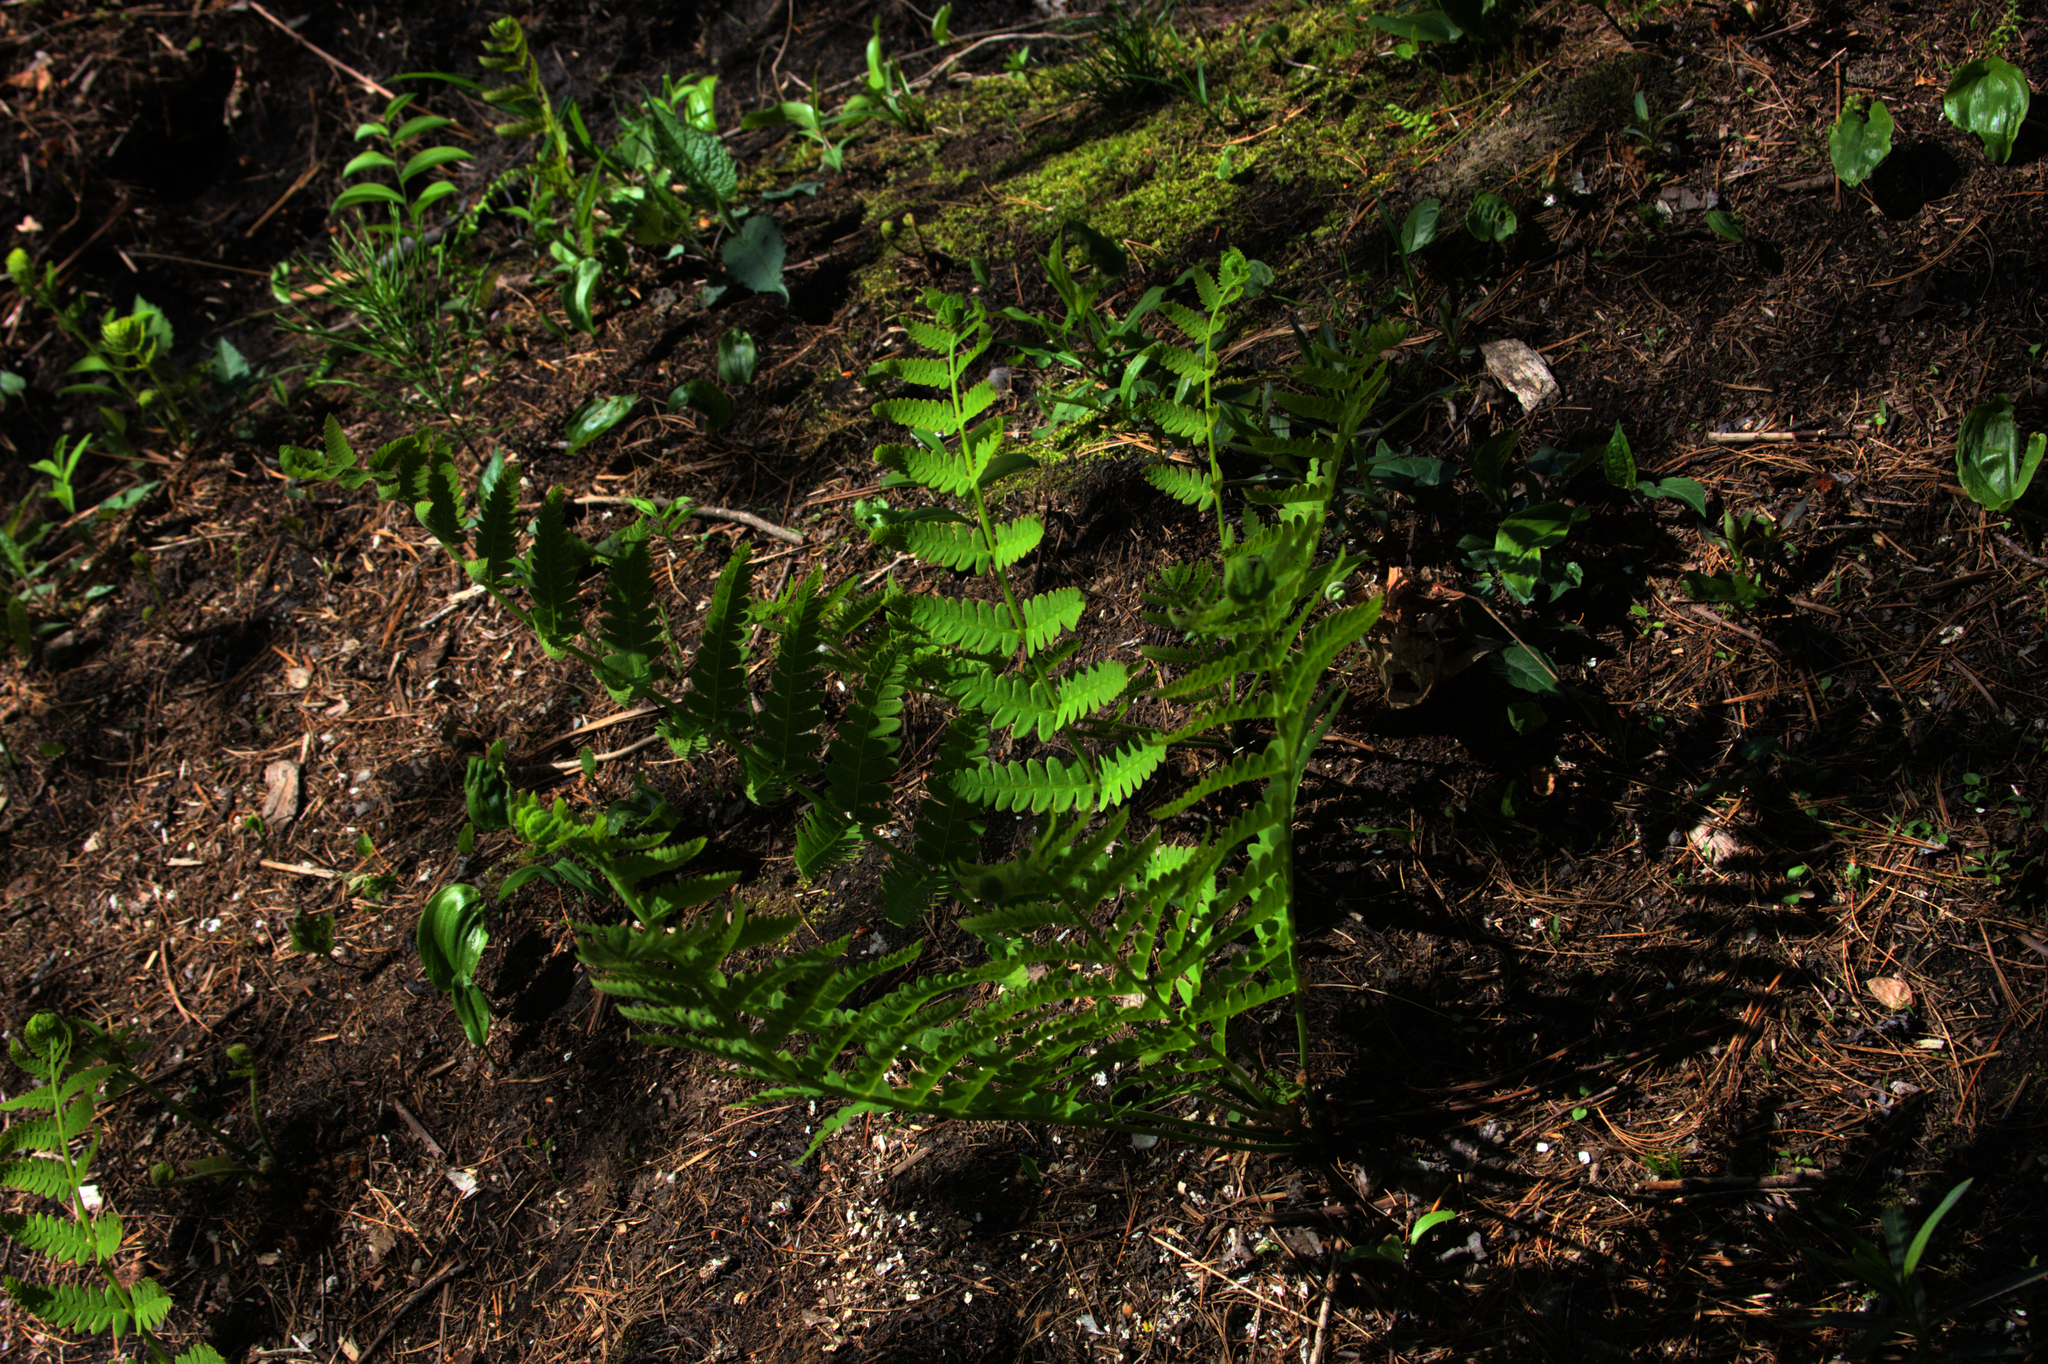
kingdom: Plantae
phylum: Tracheophyta
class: Liliopsida
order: Asparagales
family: Asparagaceae
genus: Maianthemum
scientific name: Maianthemum canadense
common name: False lily-of-the-valley
